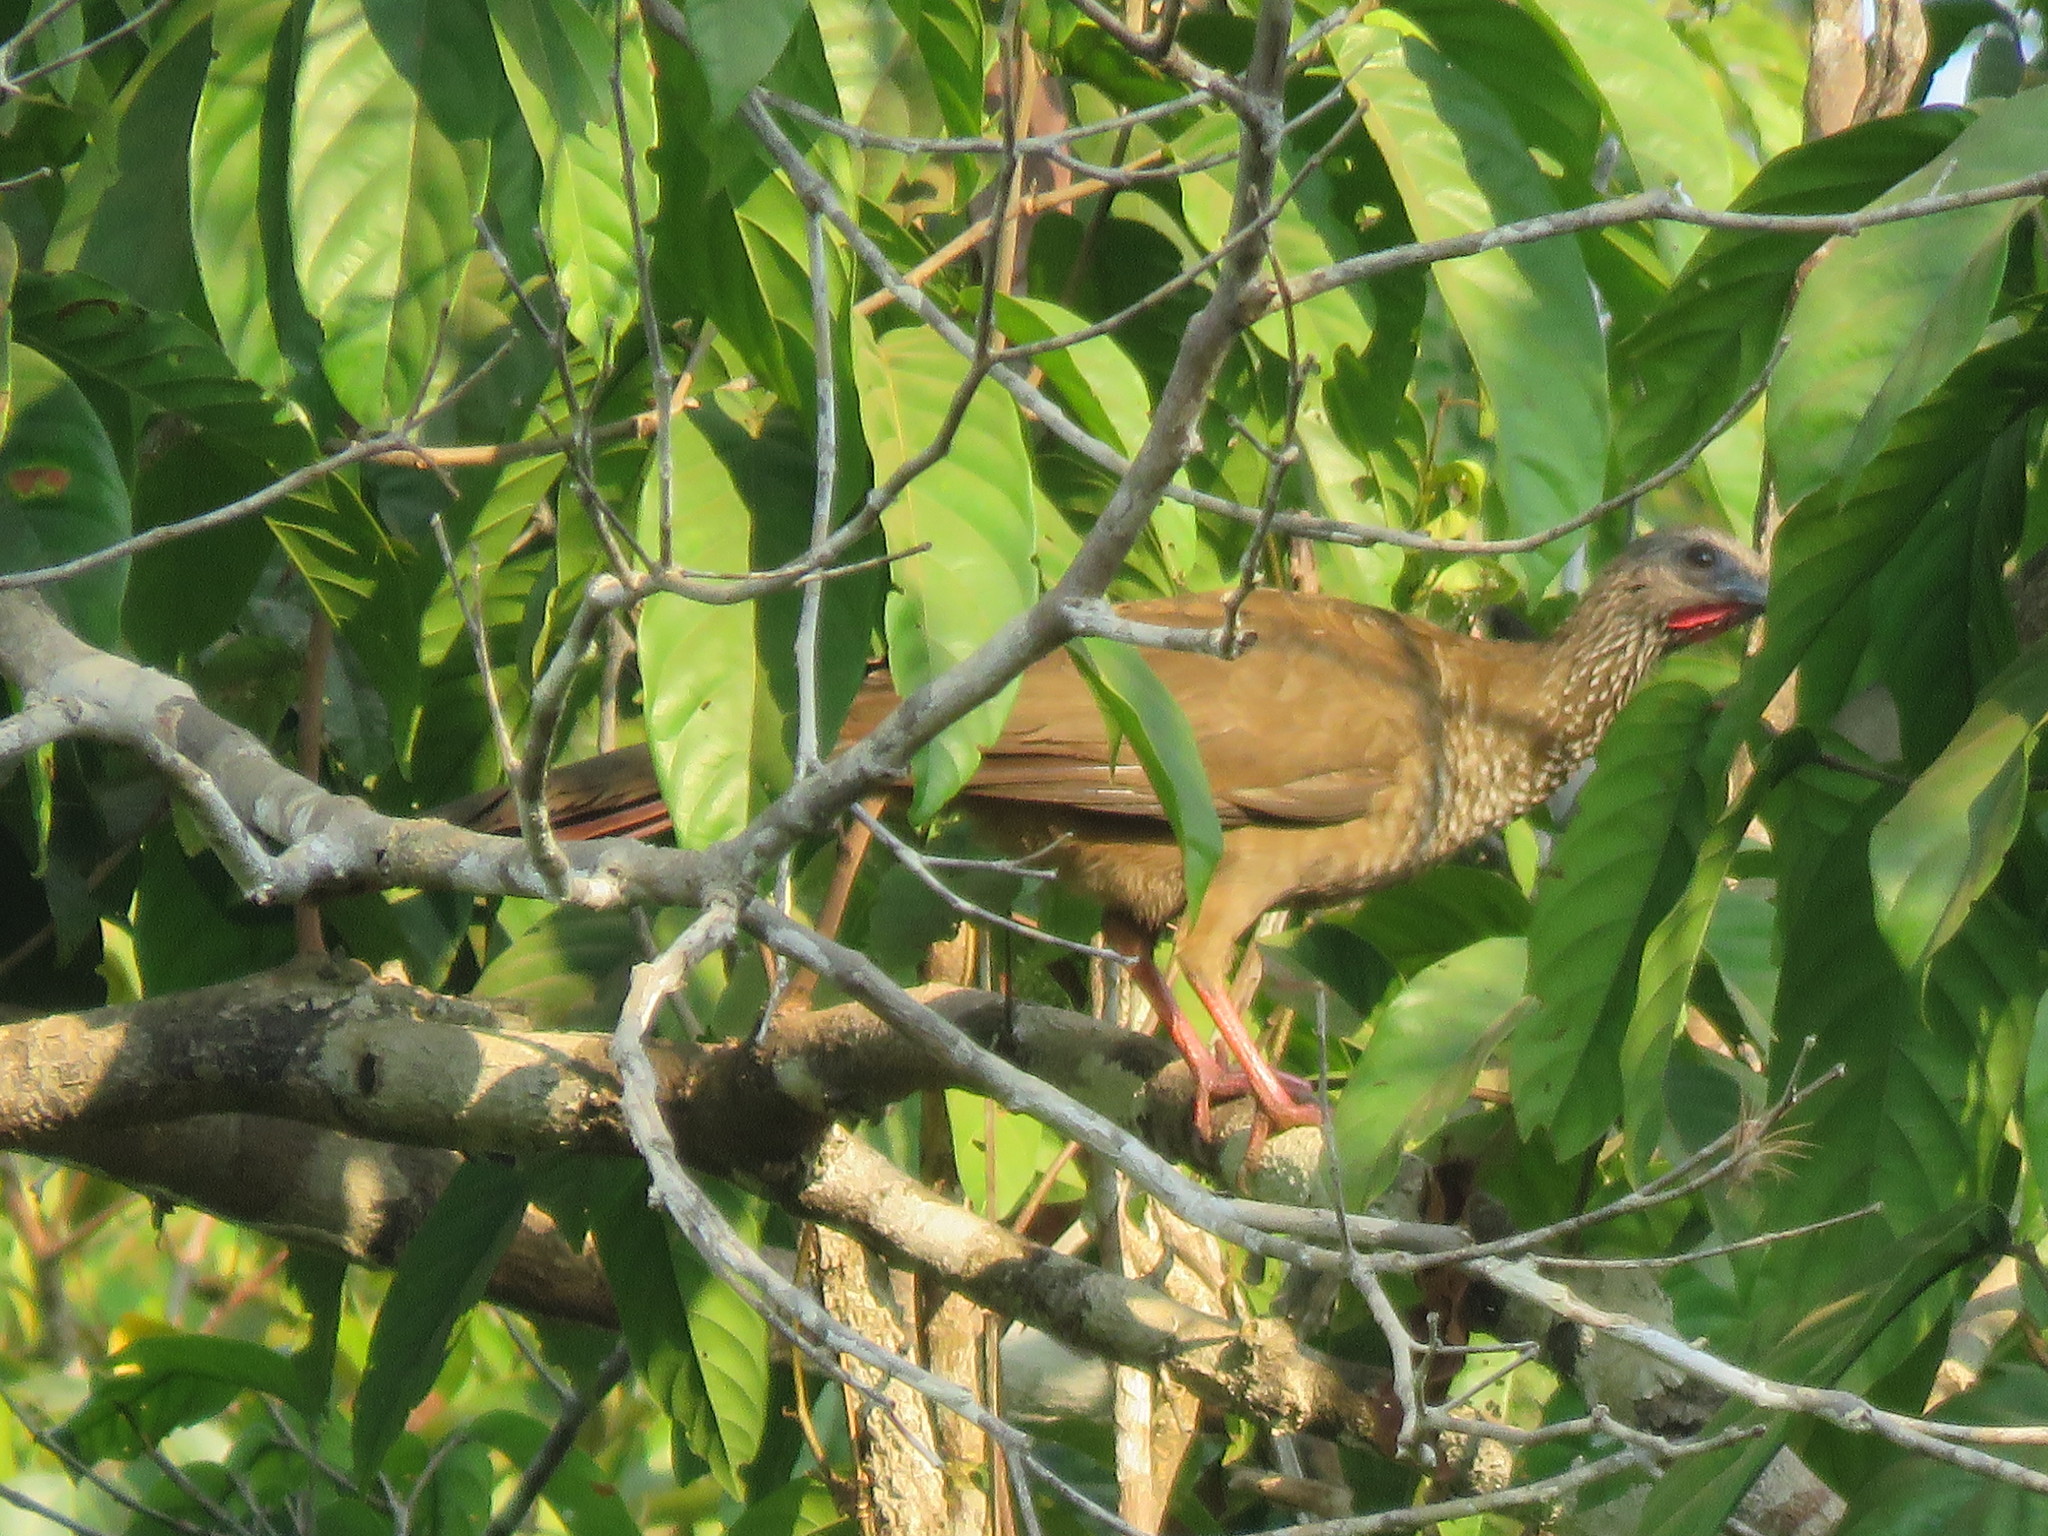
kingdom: Animalia
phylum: Chordata
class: Aves
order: Galliformes
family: Cracidae
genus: Ortalis
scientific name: Ortalis guttata
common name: Speckled chachalaca
